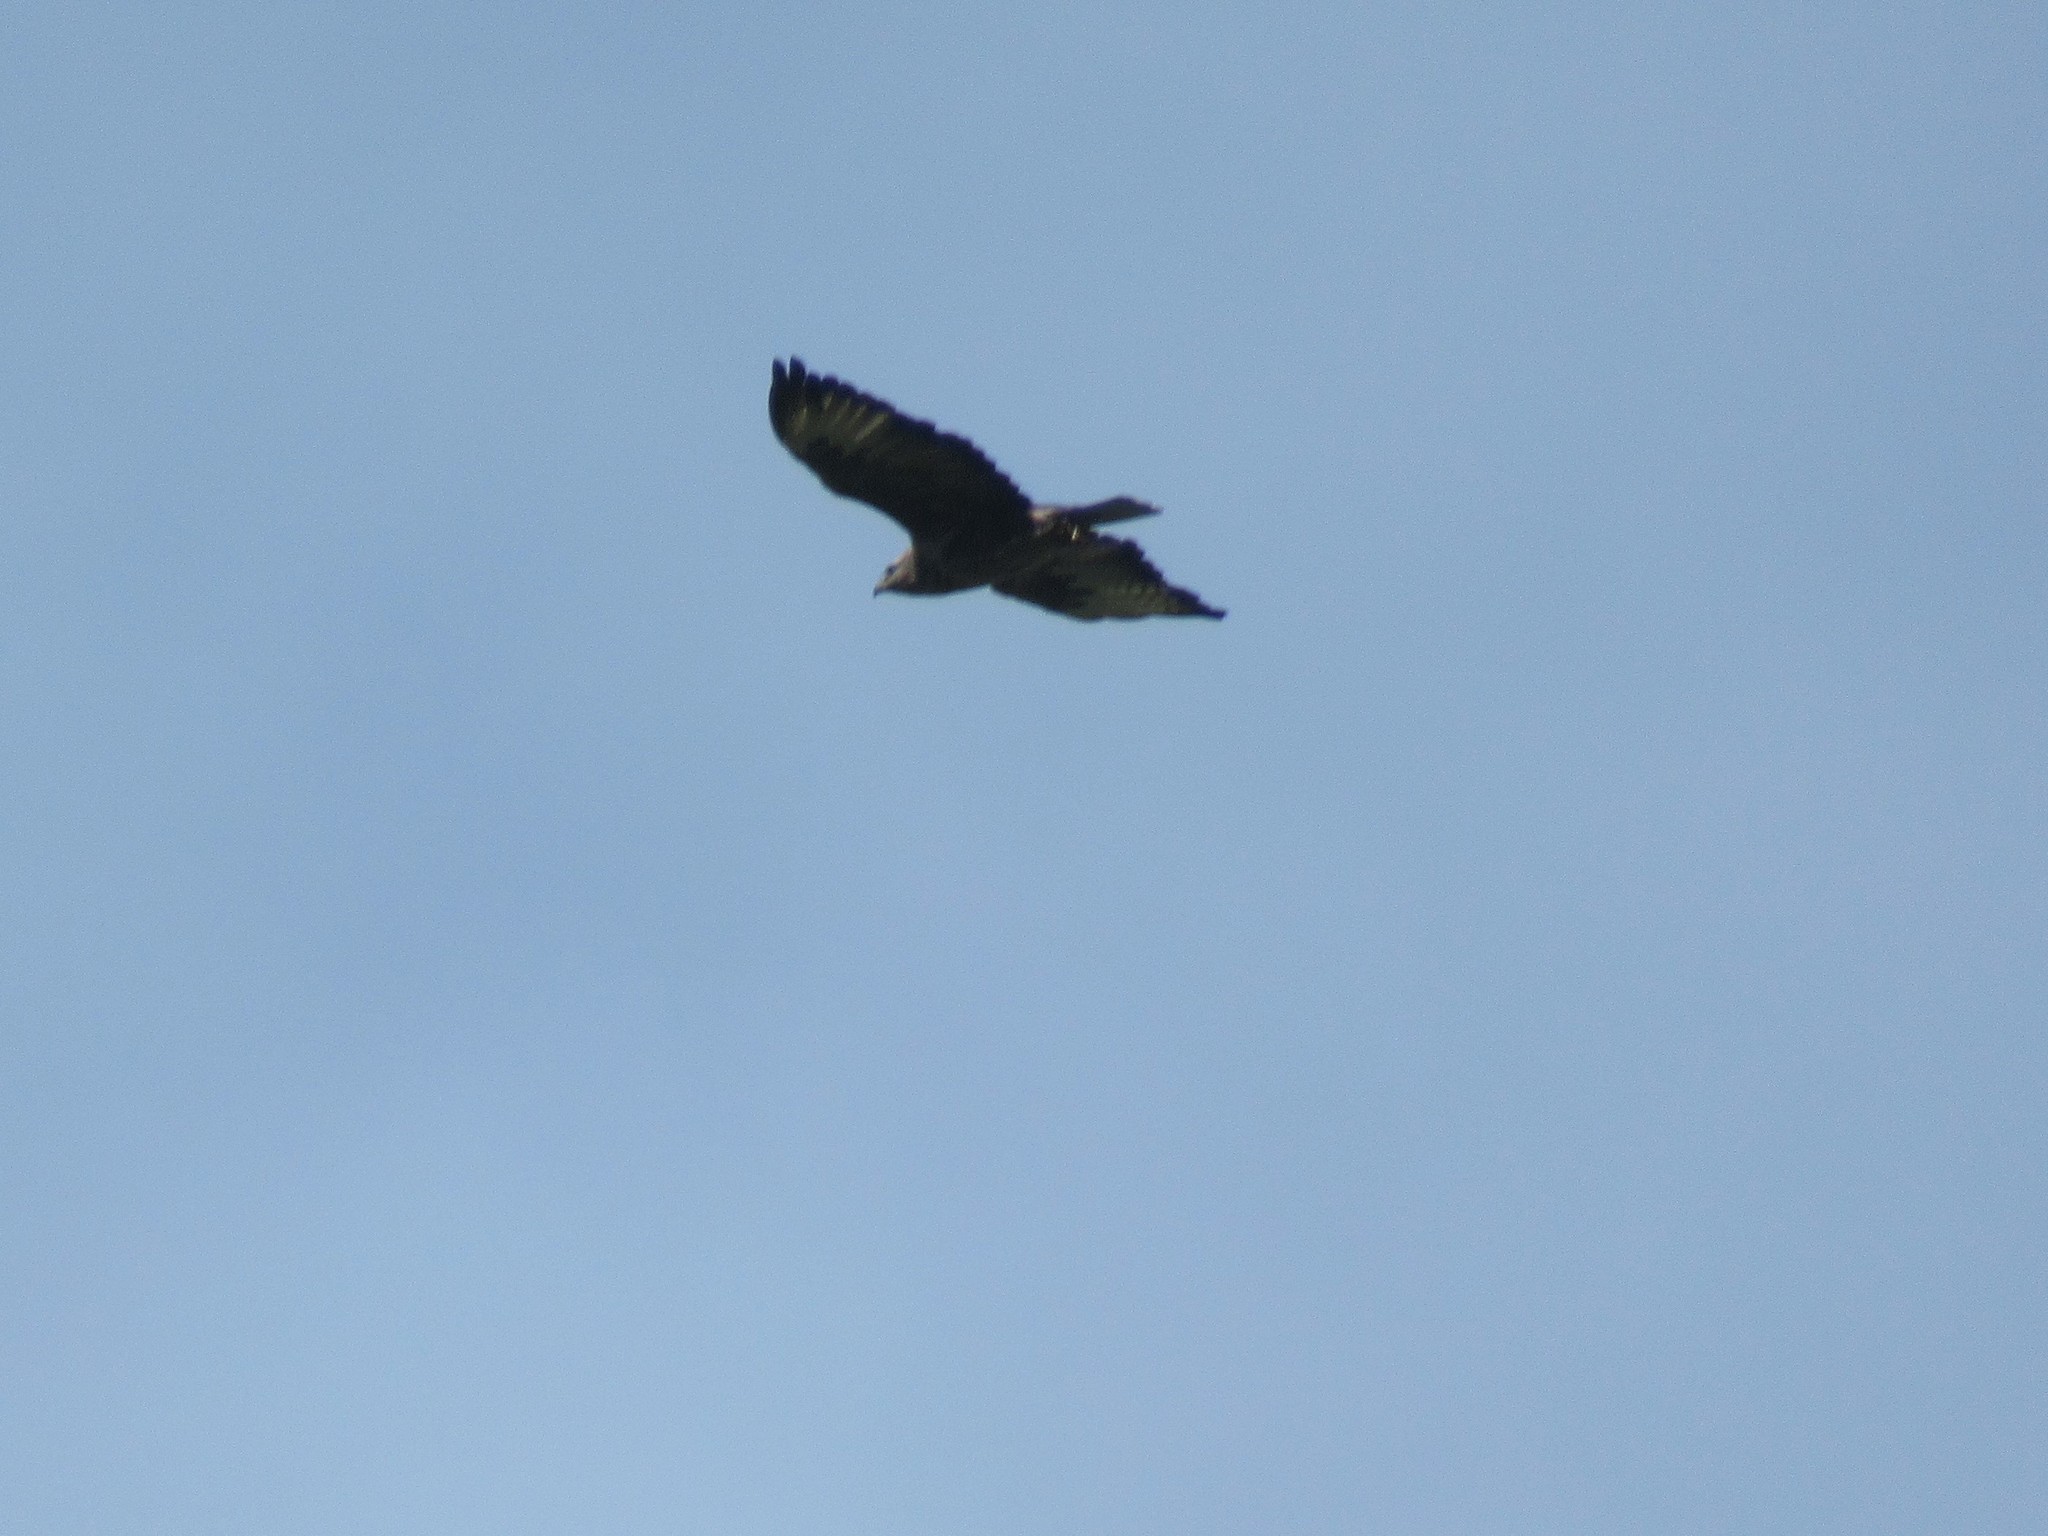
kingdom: Animalia
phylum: Chordata
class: Aves
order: Accipitriformes
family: Accipitridae
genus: Buteo
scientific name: Buteo buteo
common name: Common buzzard
